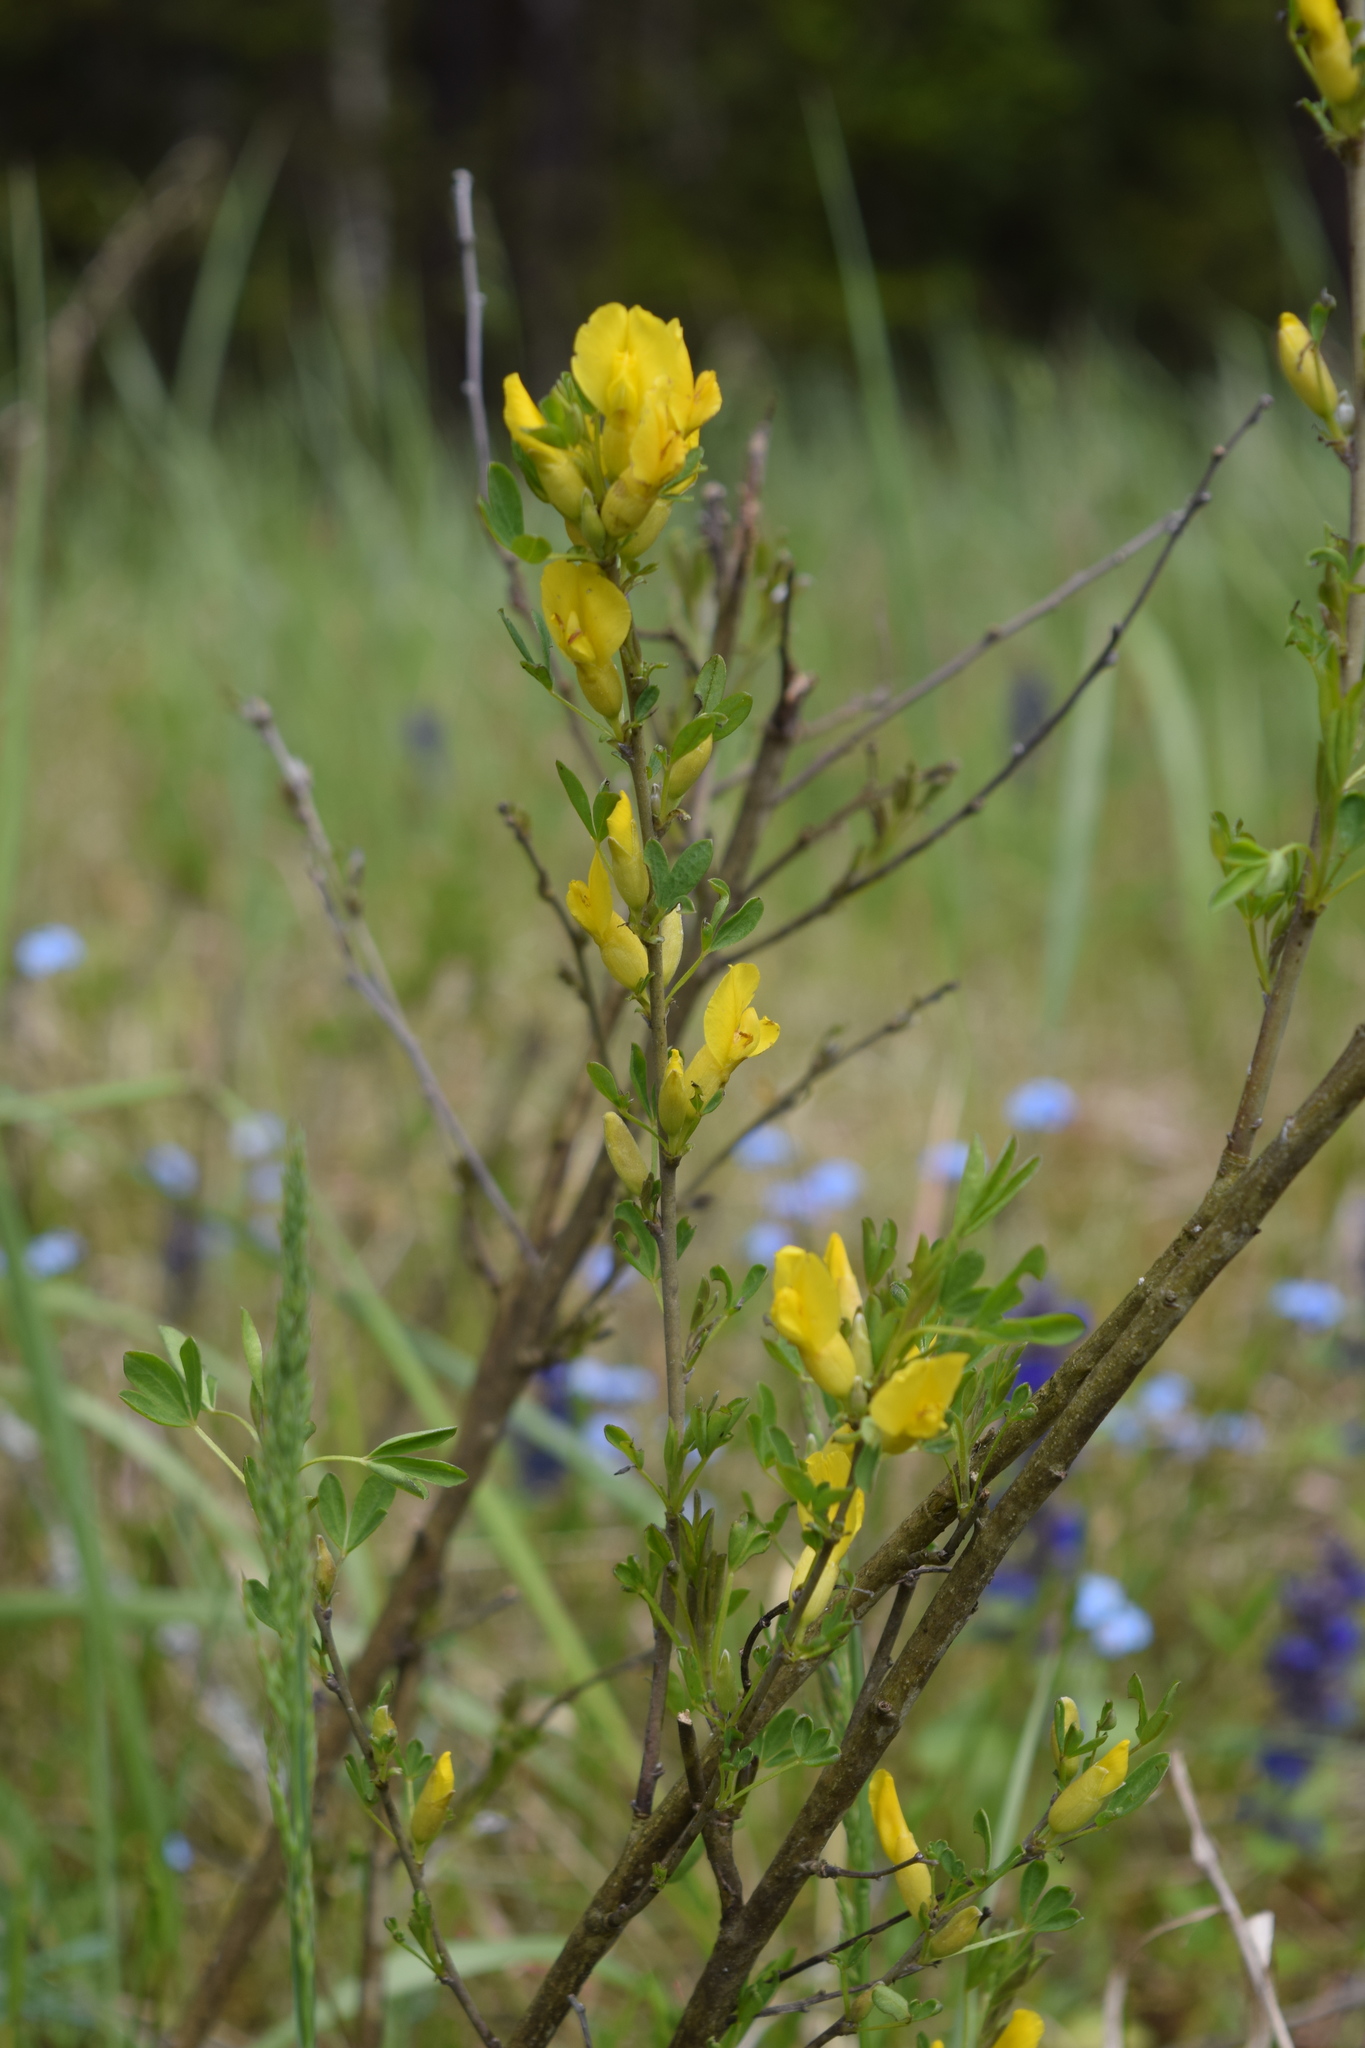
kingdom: Plantae
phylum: Tracheophyta
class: Magnoliopsida
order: Fabales
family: Fabaceae
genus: Chamaecytisus
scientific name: Chamaecytisus ruthenicus
